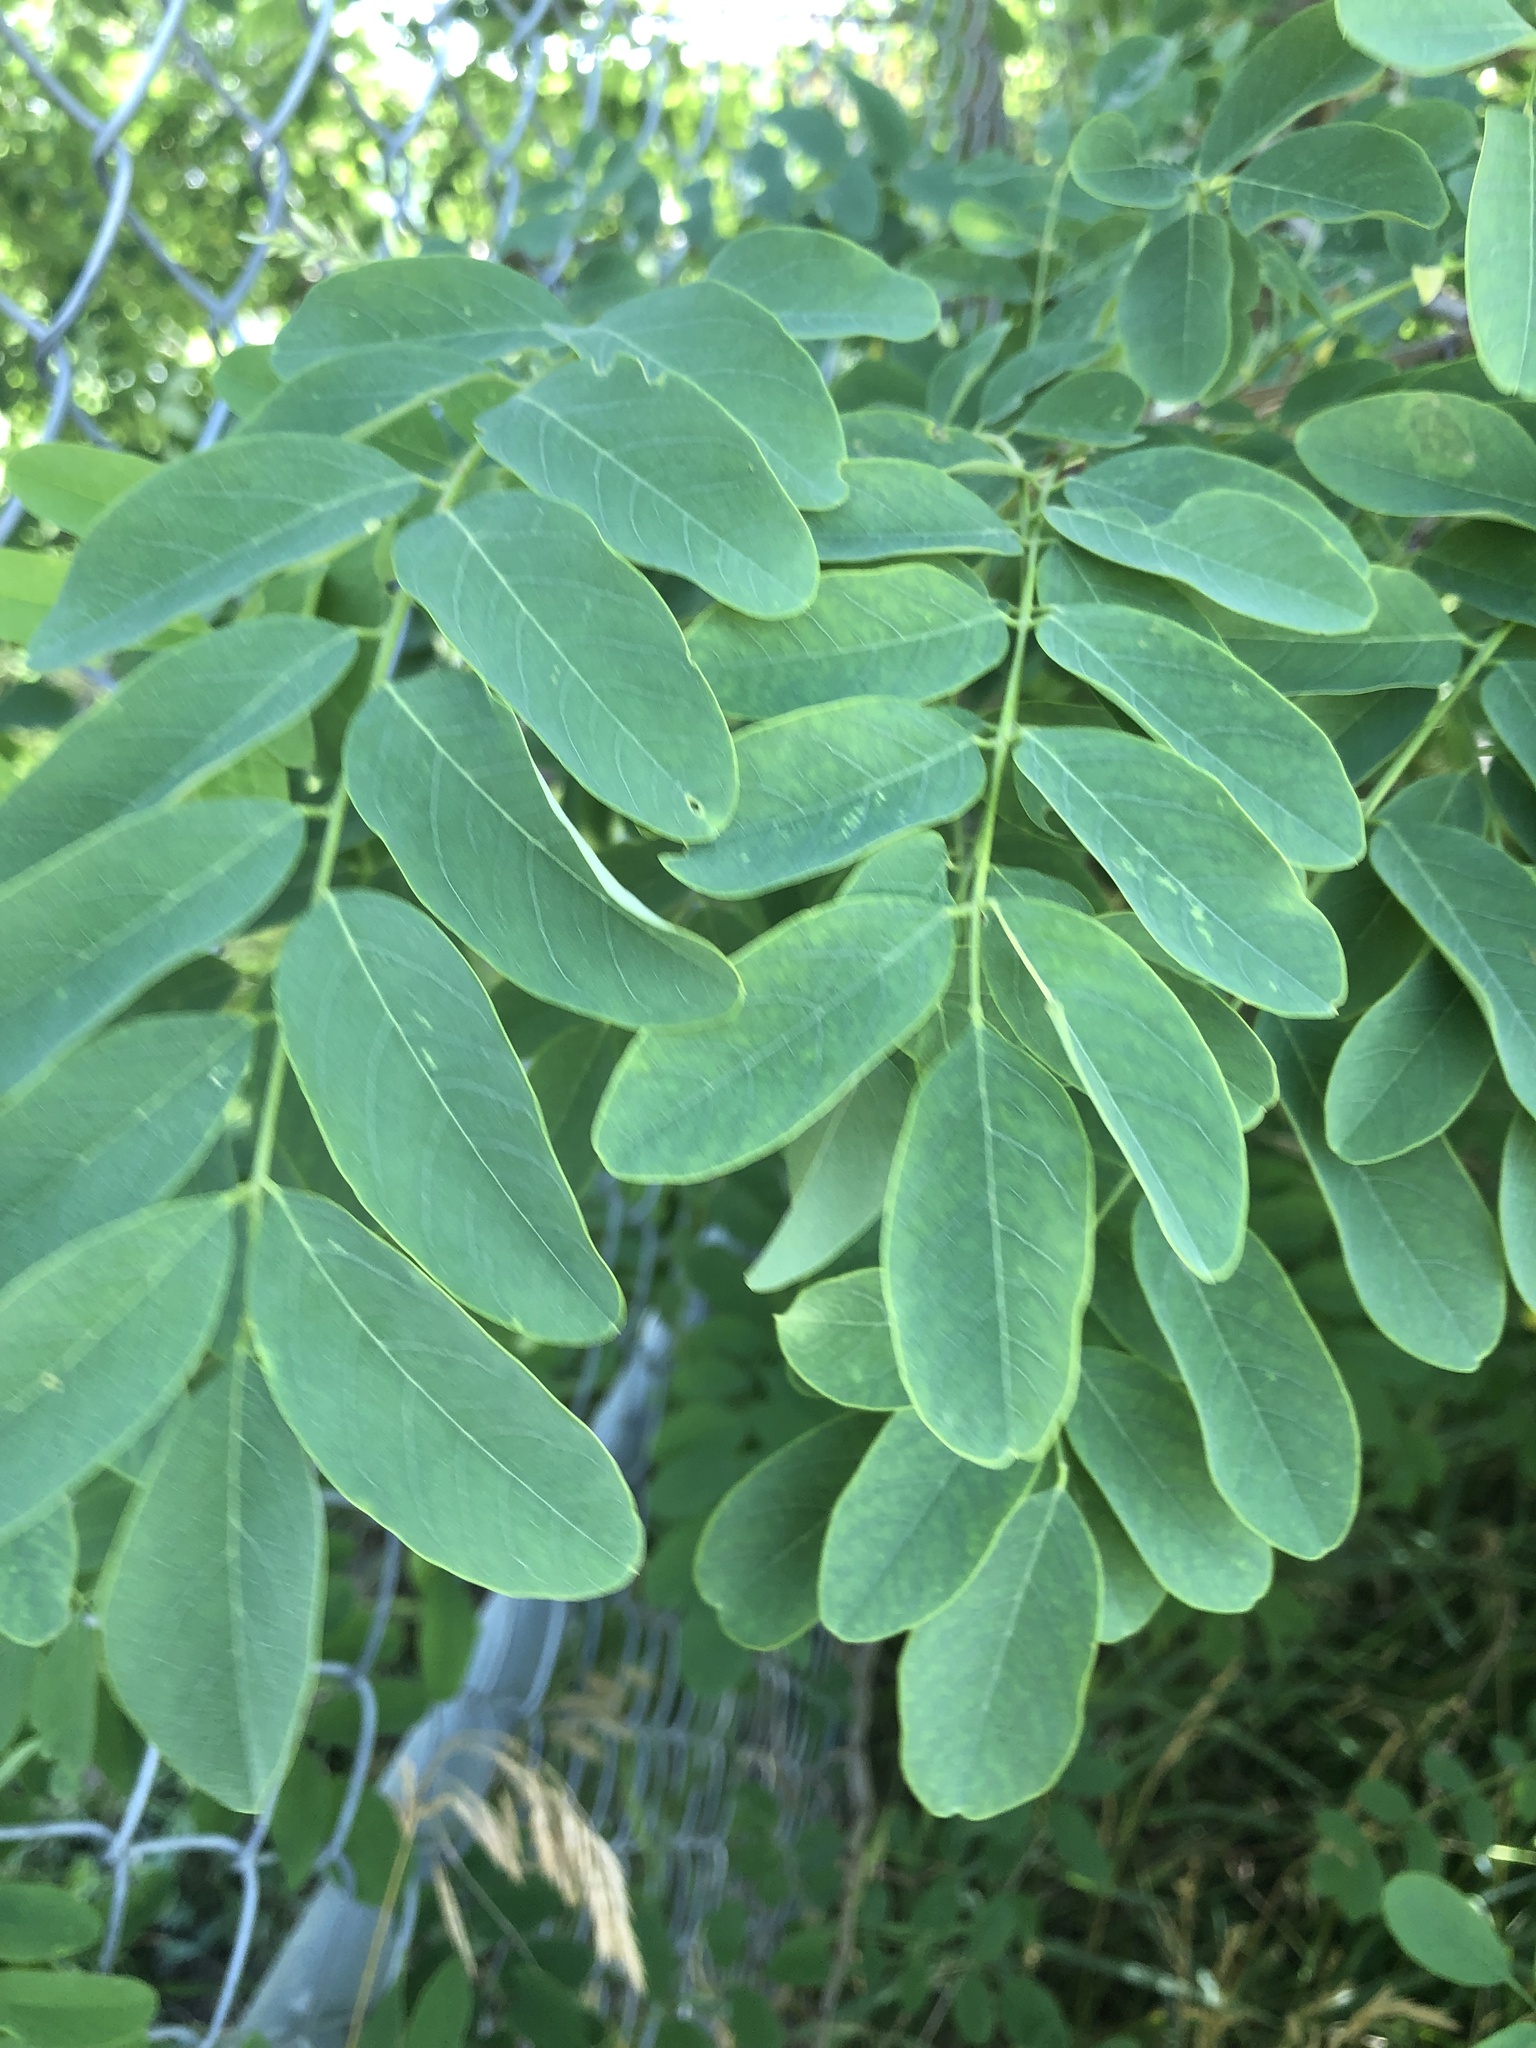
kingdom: Plantae
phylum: Tracheophyta
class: Magnoliopsida
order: Fabales
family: Fabaceae
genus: Robinia
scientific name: Robinia pseudoacacia
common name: Black locust
